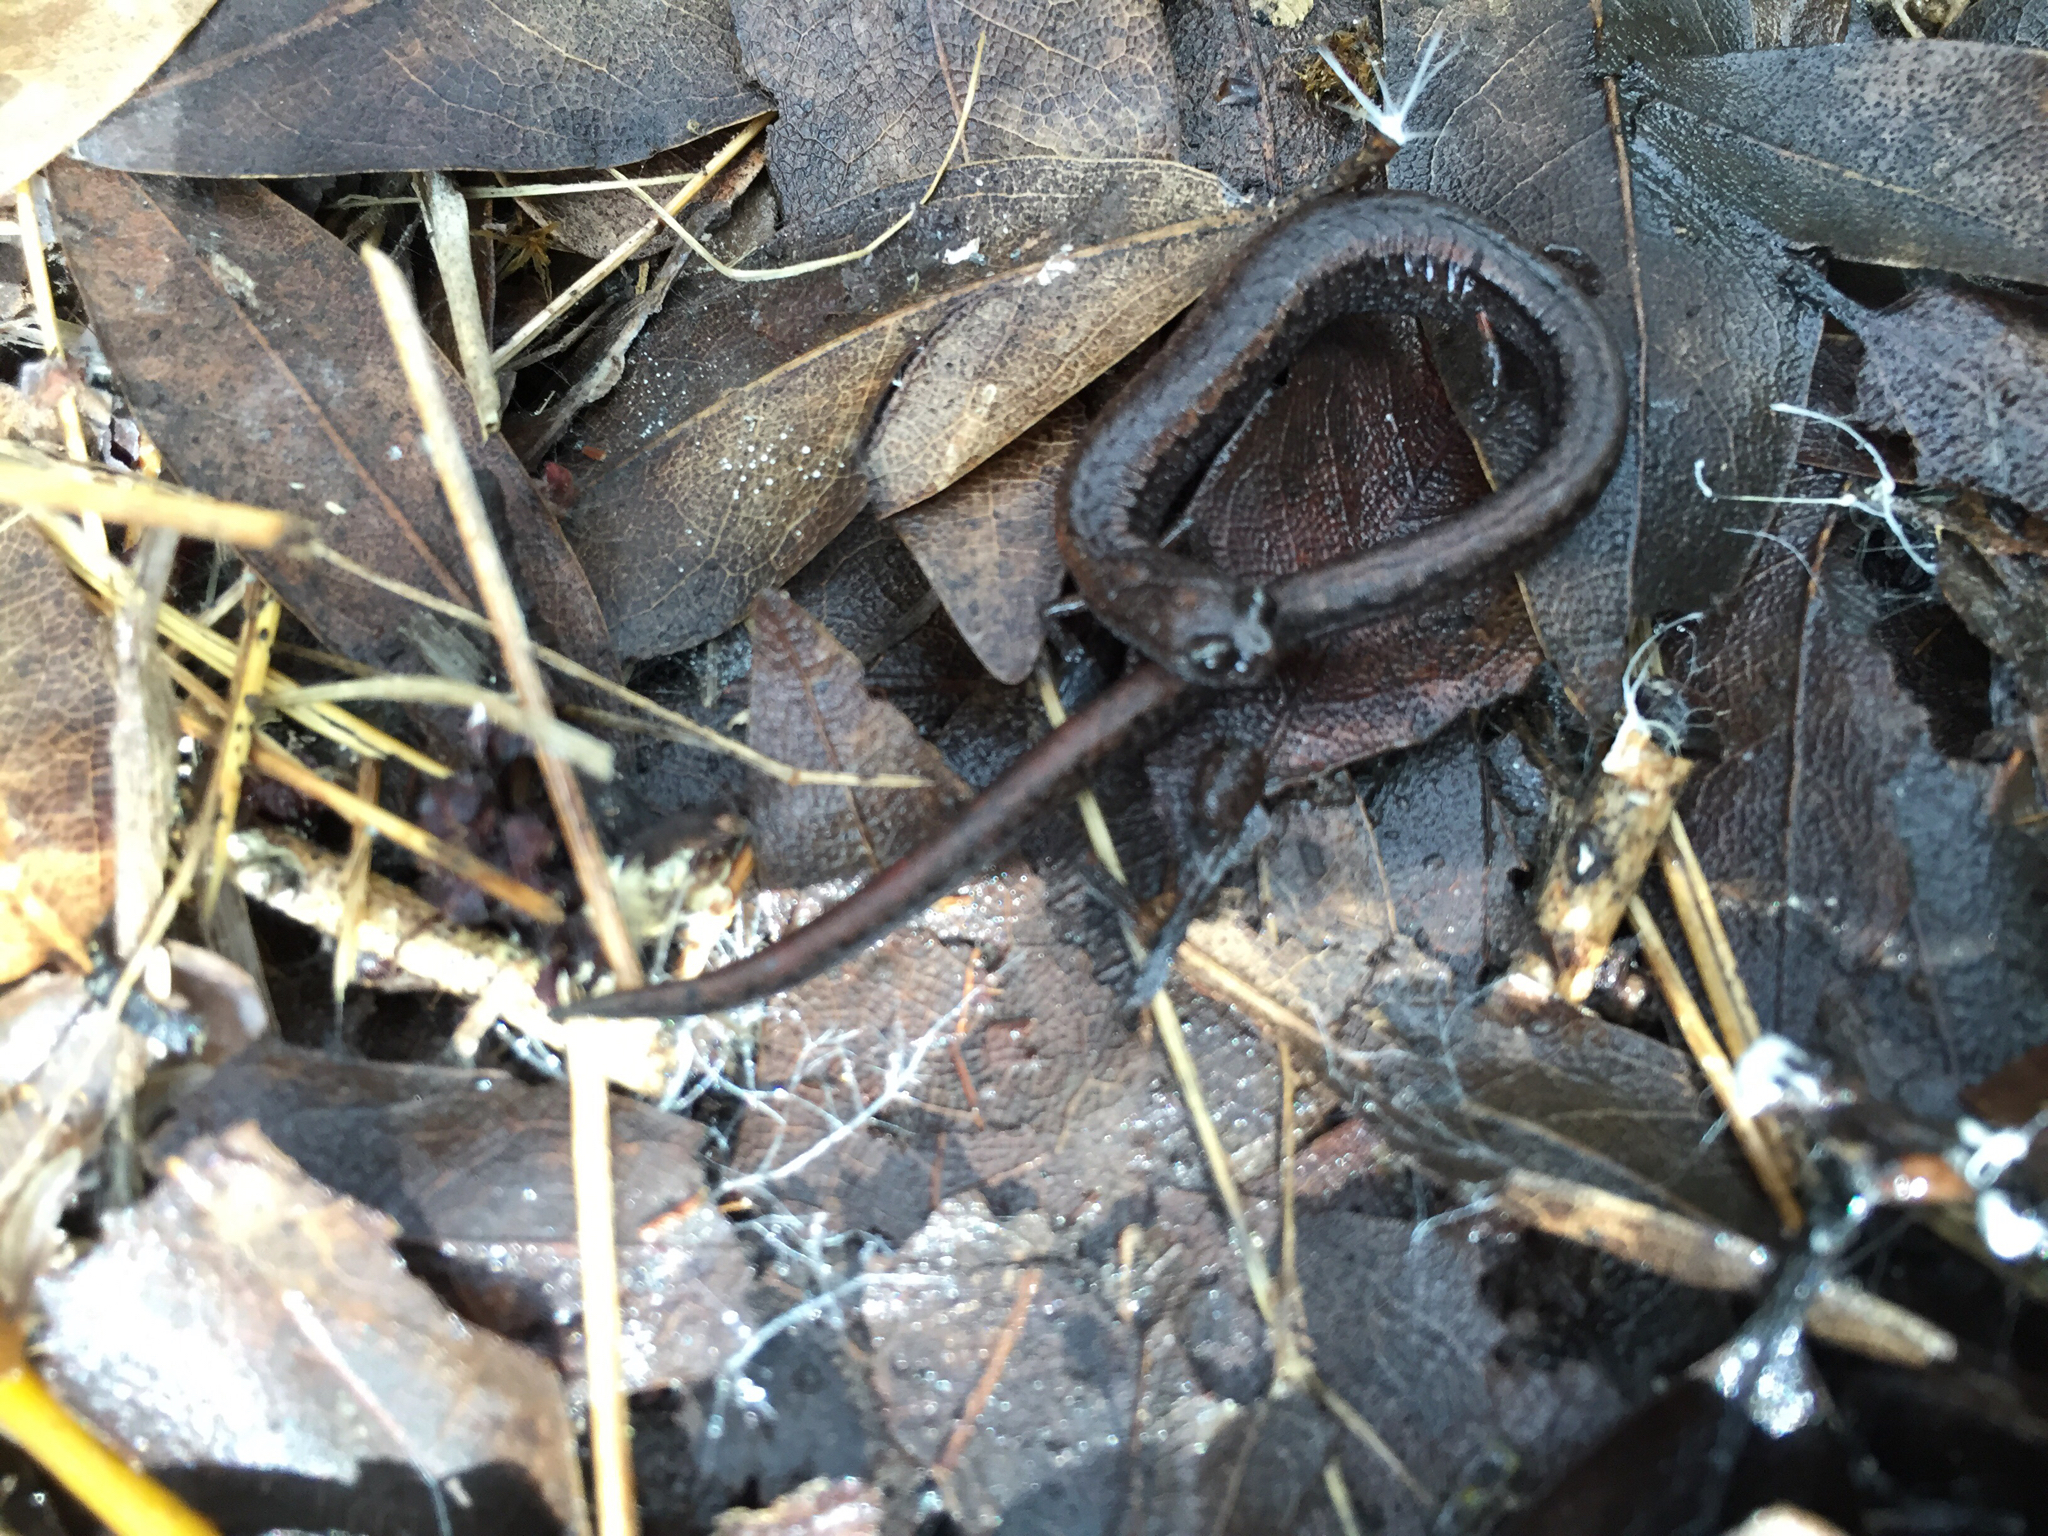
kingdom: Animalia
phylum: Chordata
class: Amphibia
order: Caudata
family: Plethodontidae
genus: Batrachoseps
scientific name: Batrachoseps attenuatus
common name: California slender salamander
